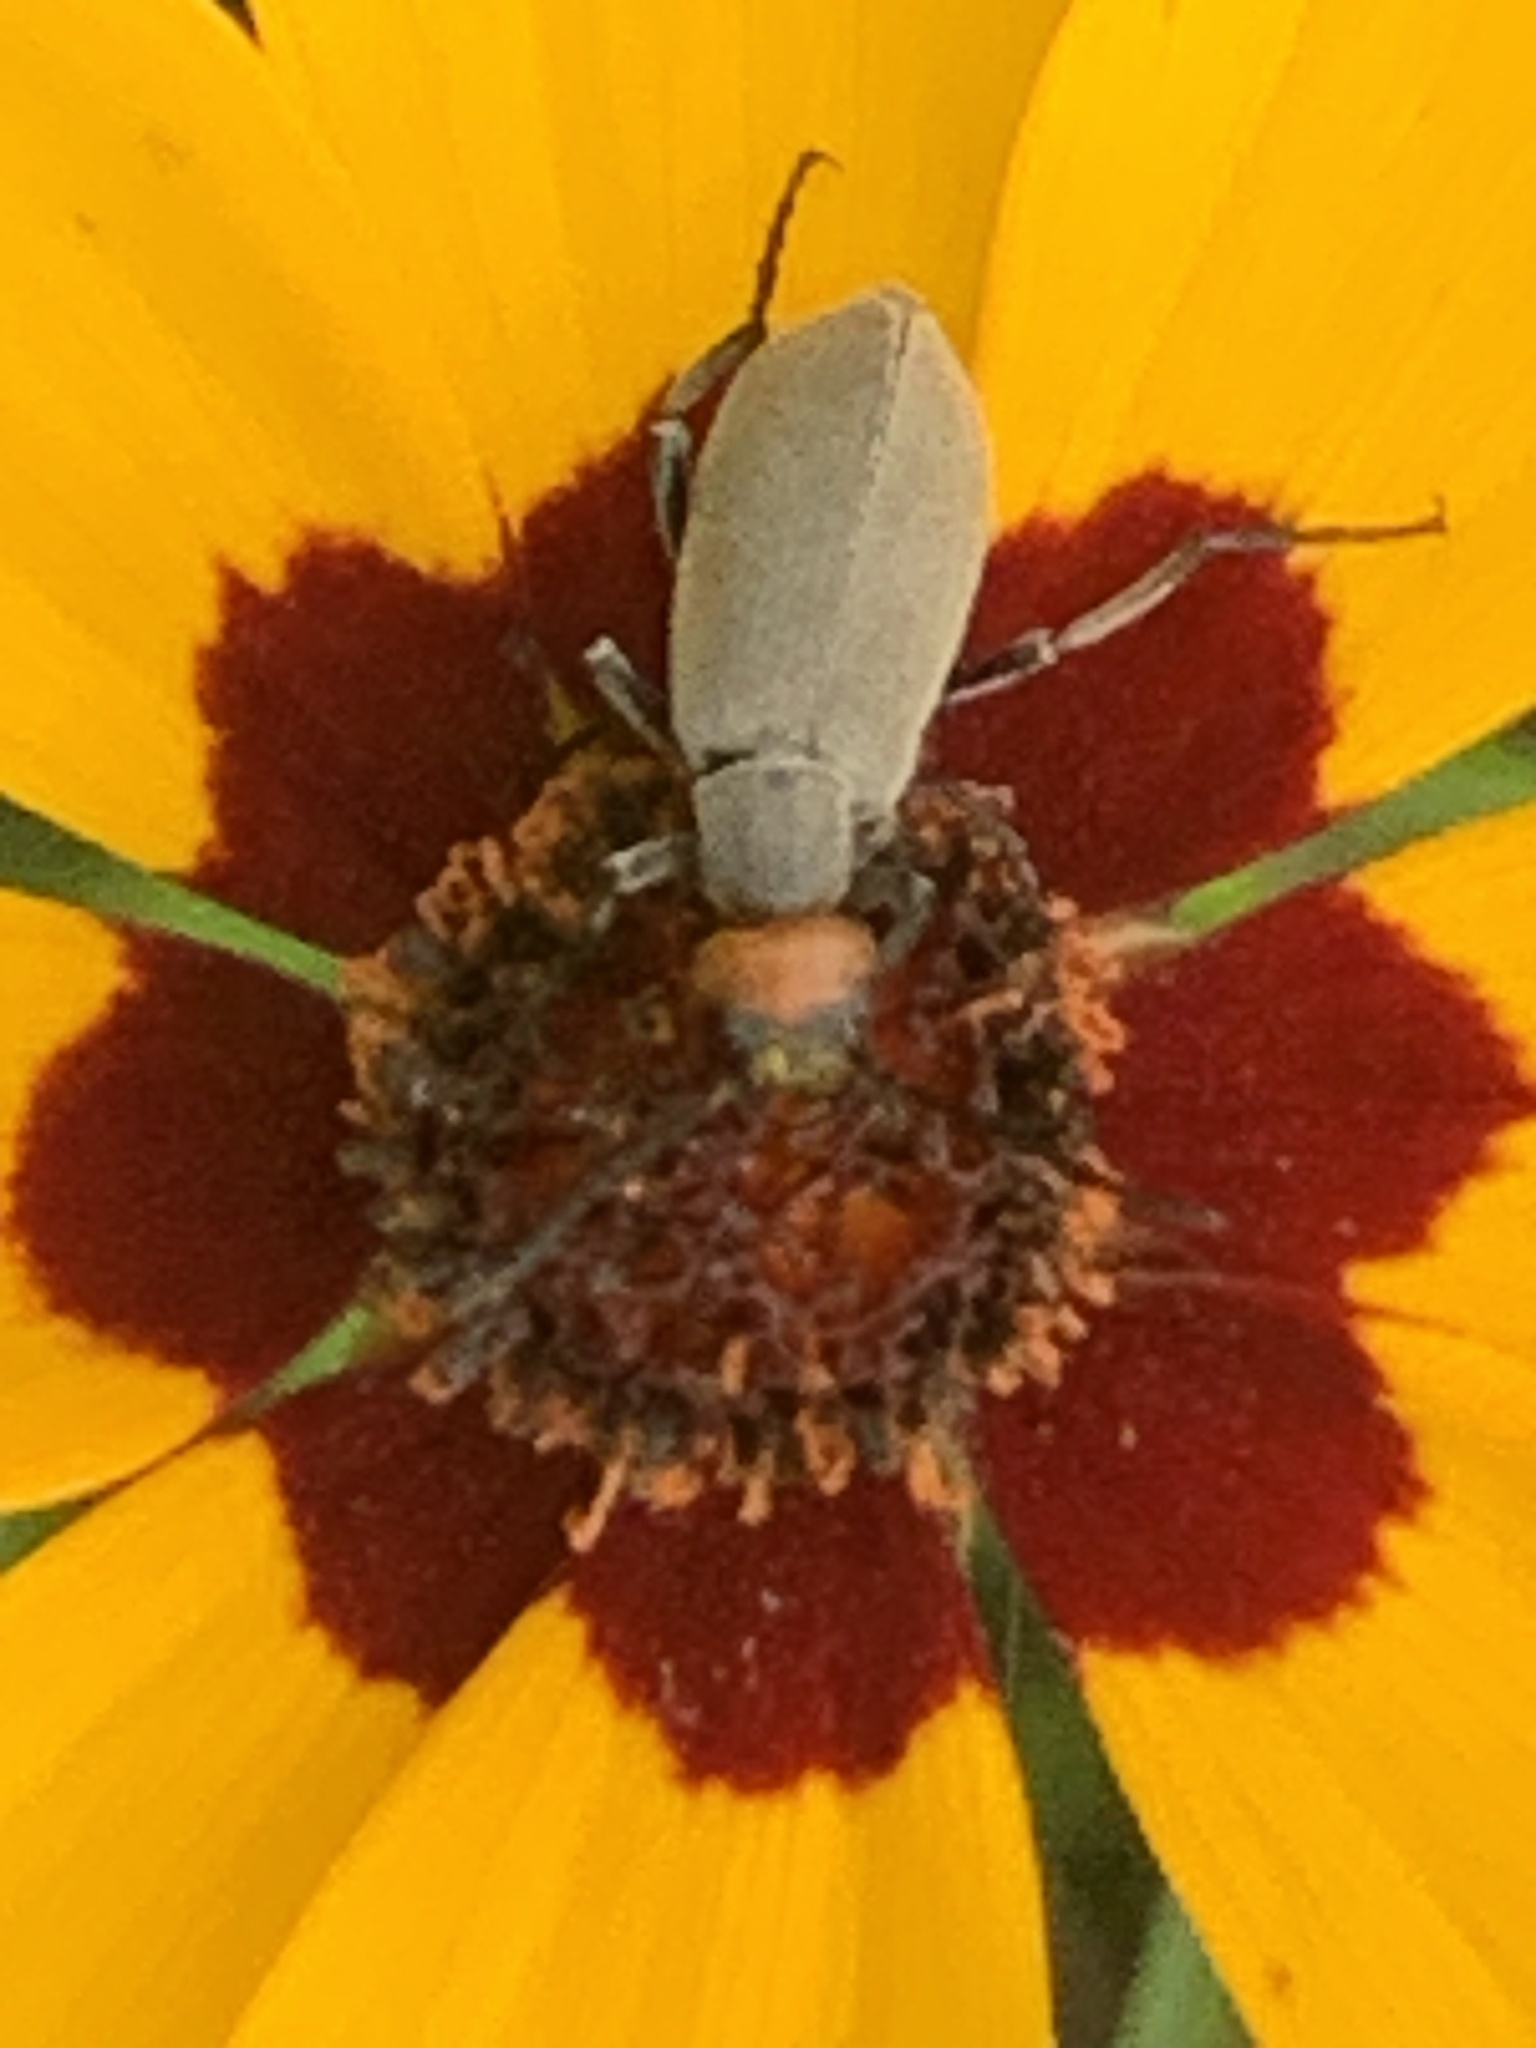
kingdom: Animalia
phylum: Arthropoda
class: Insecta
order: Coleoptera
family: Meloidae
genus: Epicauta
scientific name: Epicauta atrata
